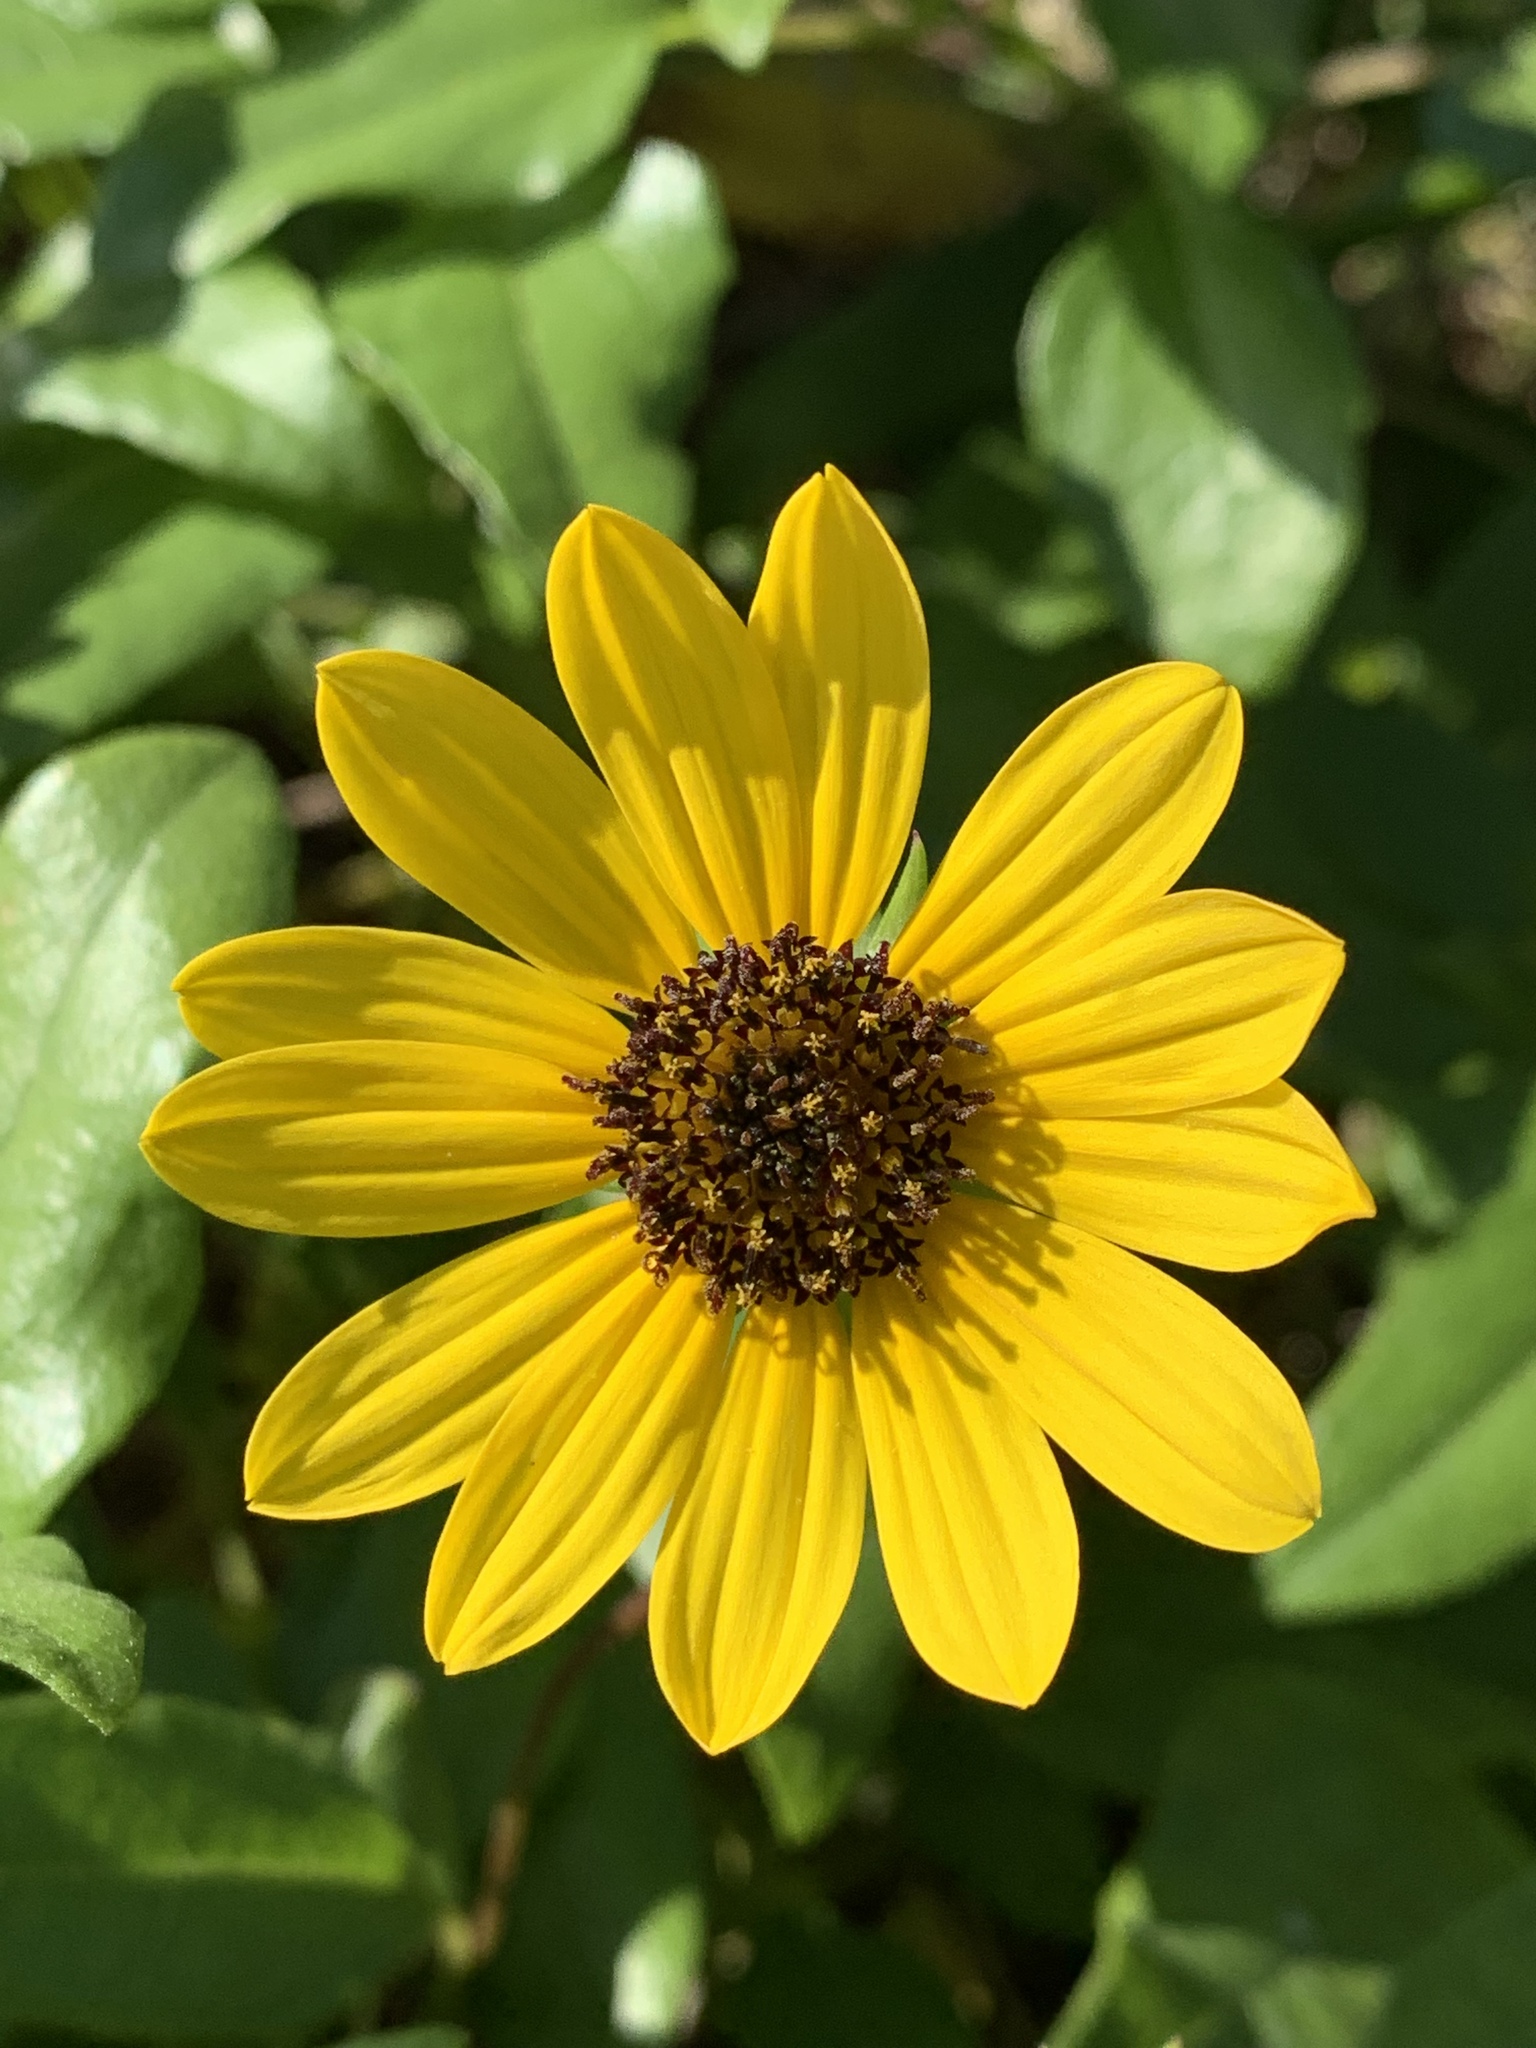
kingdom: Plantae
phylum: Tracheophyta
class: Magnoliopsida
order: Asterales
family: Asteraceae
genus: Helianthus
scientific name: Helianthus debilis
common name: Weak sunflower
